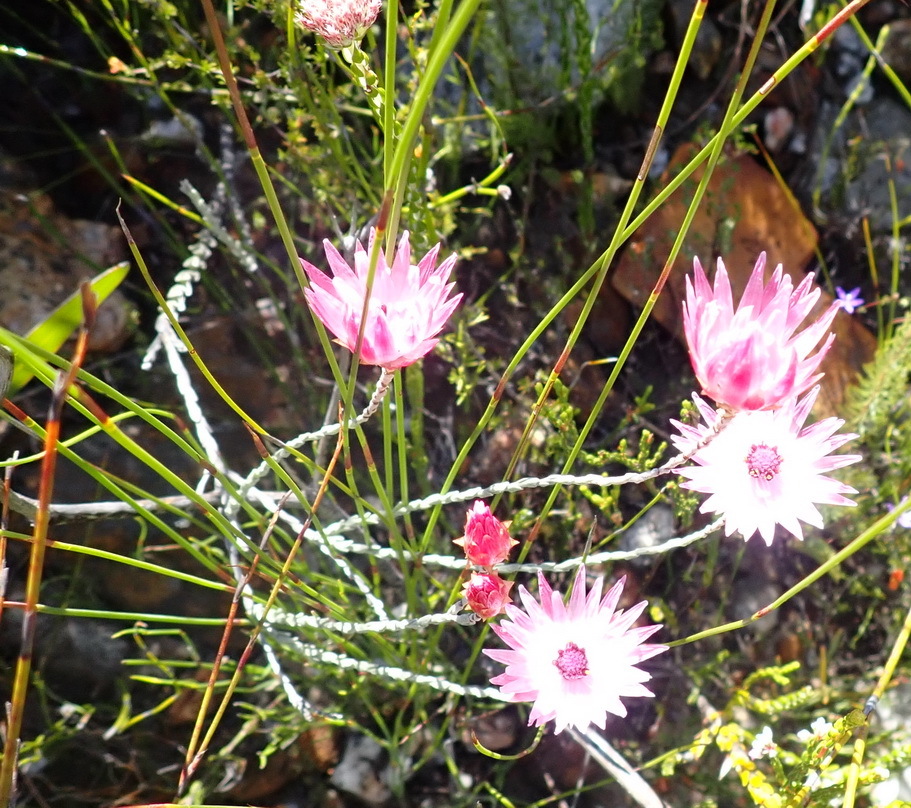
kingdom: Plantae
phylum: Tracheophyta
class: Magnoliopsida
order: Asterales
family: Asteraceae
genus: Syncarpha
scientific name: Syncarpha canescens
